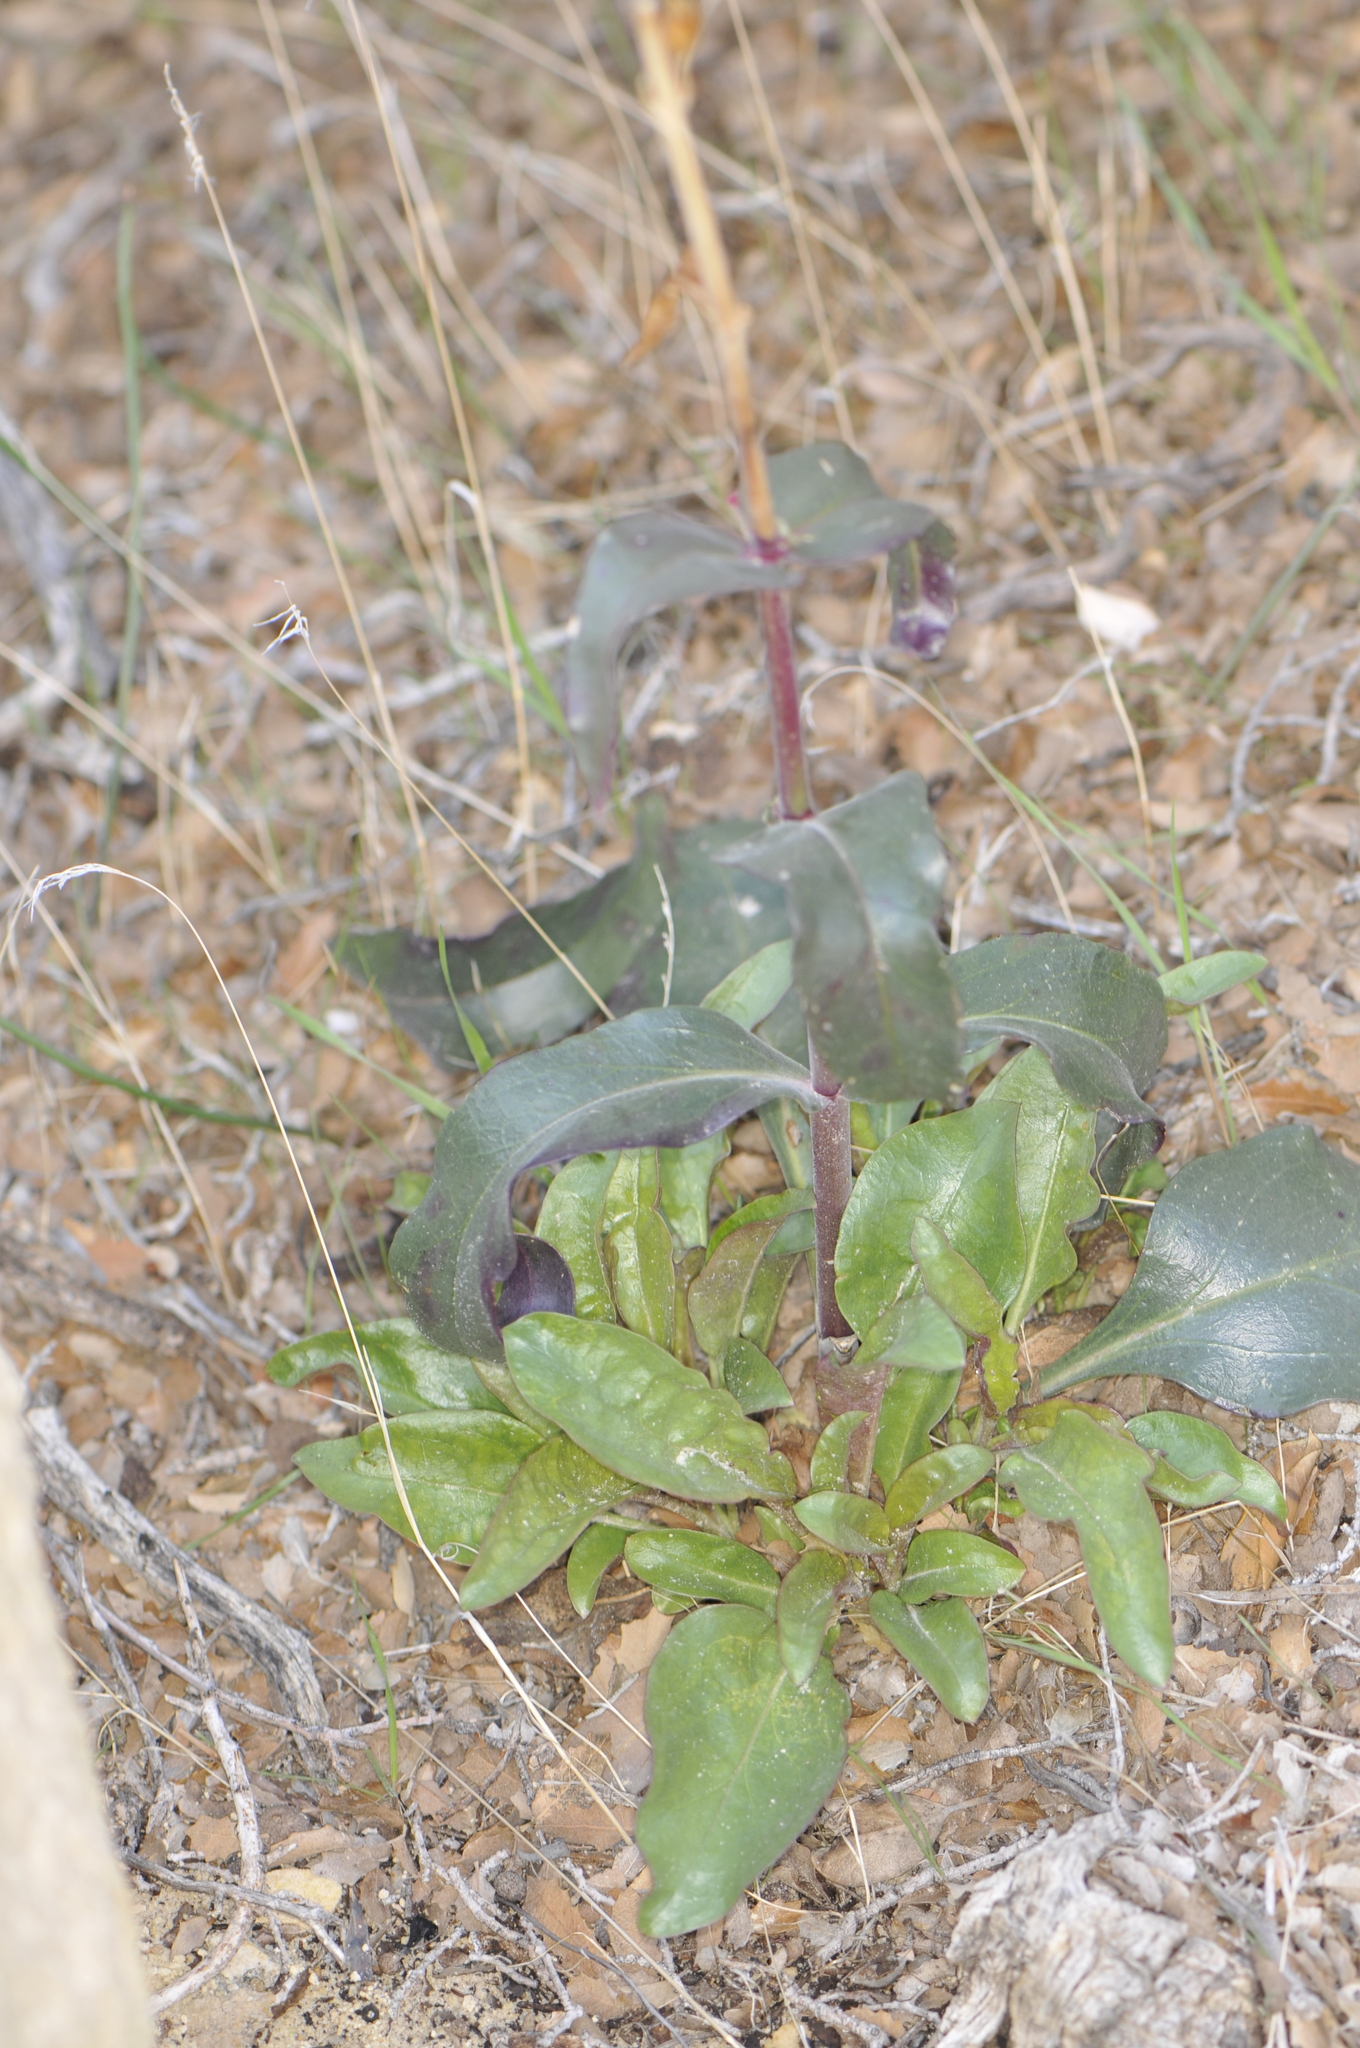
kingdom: Plantae
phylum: Tracheophyta
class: Magnoliopsida
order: Lamiales
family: Plantaginaceae
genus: Penstemon
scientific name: Penstemon eatonii
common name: Eaton's penstemon
